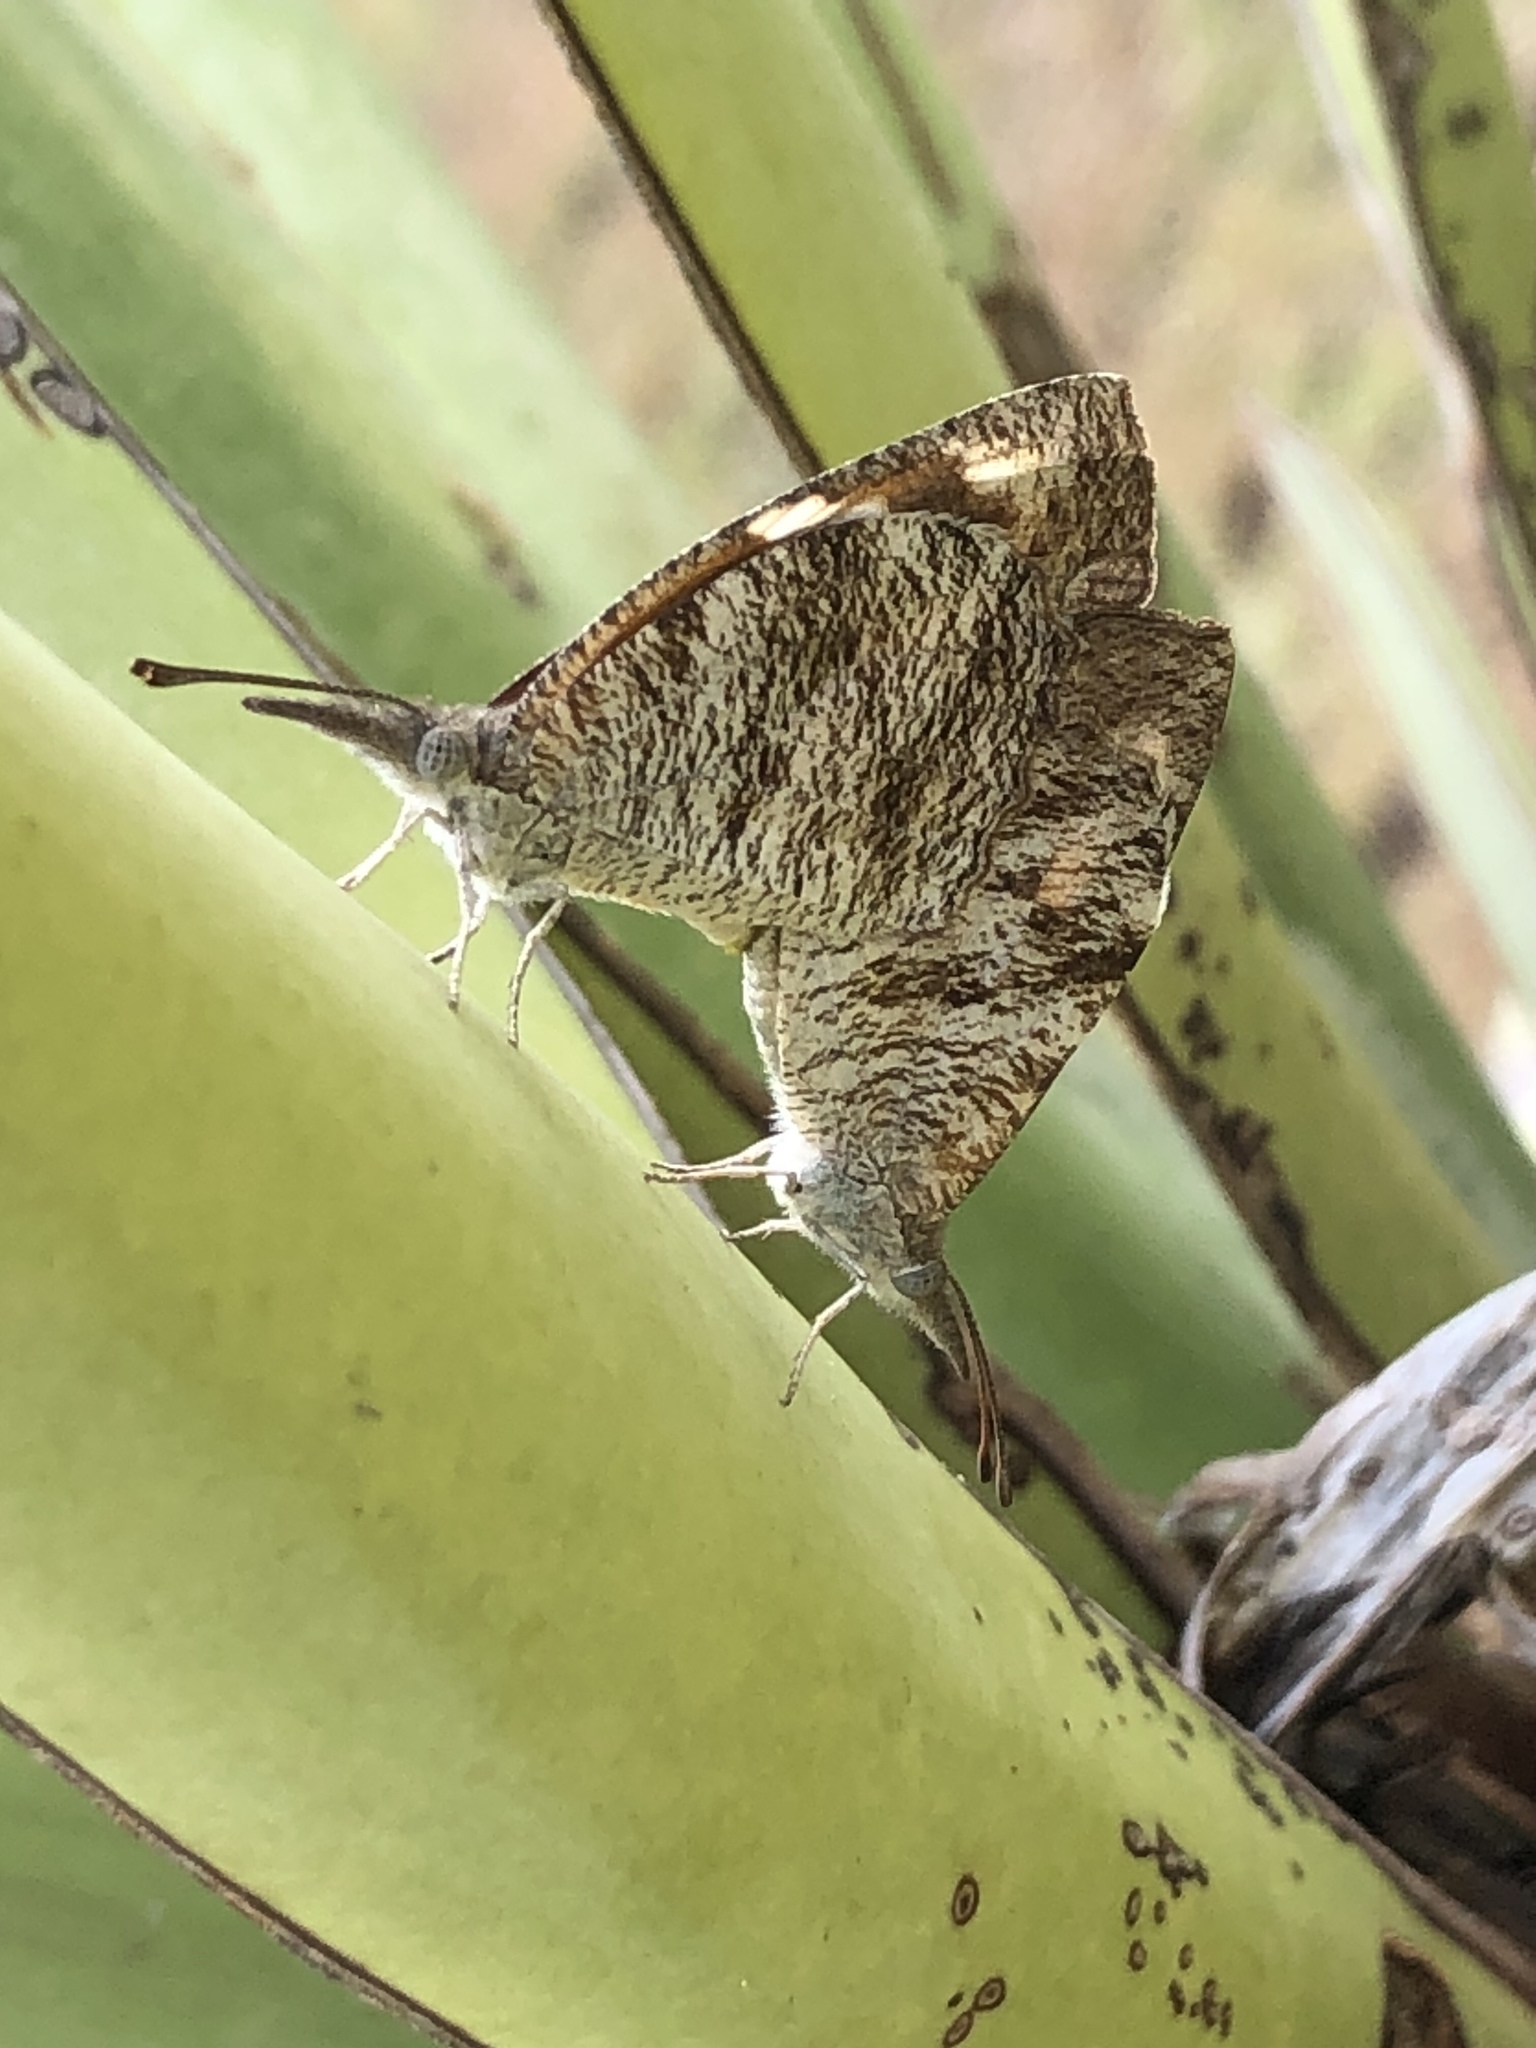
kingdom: Animalia
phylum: Arthropoda
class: Insecta
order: Lepidoptera
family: Nymphalidae
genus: Libytheana
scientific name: Libytheana carinenta
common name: American snout
